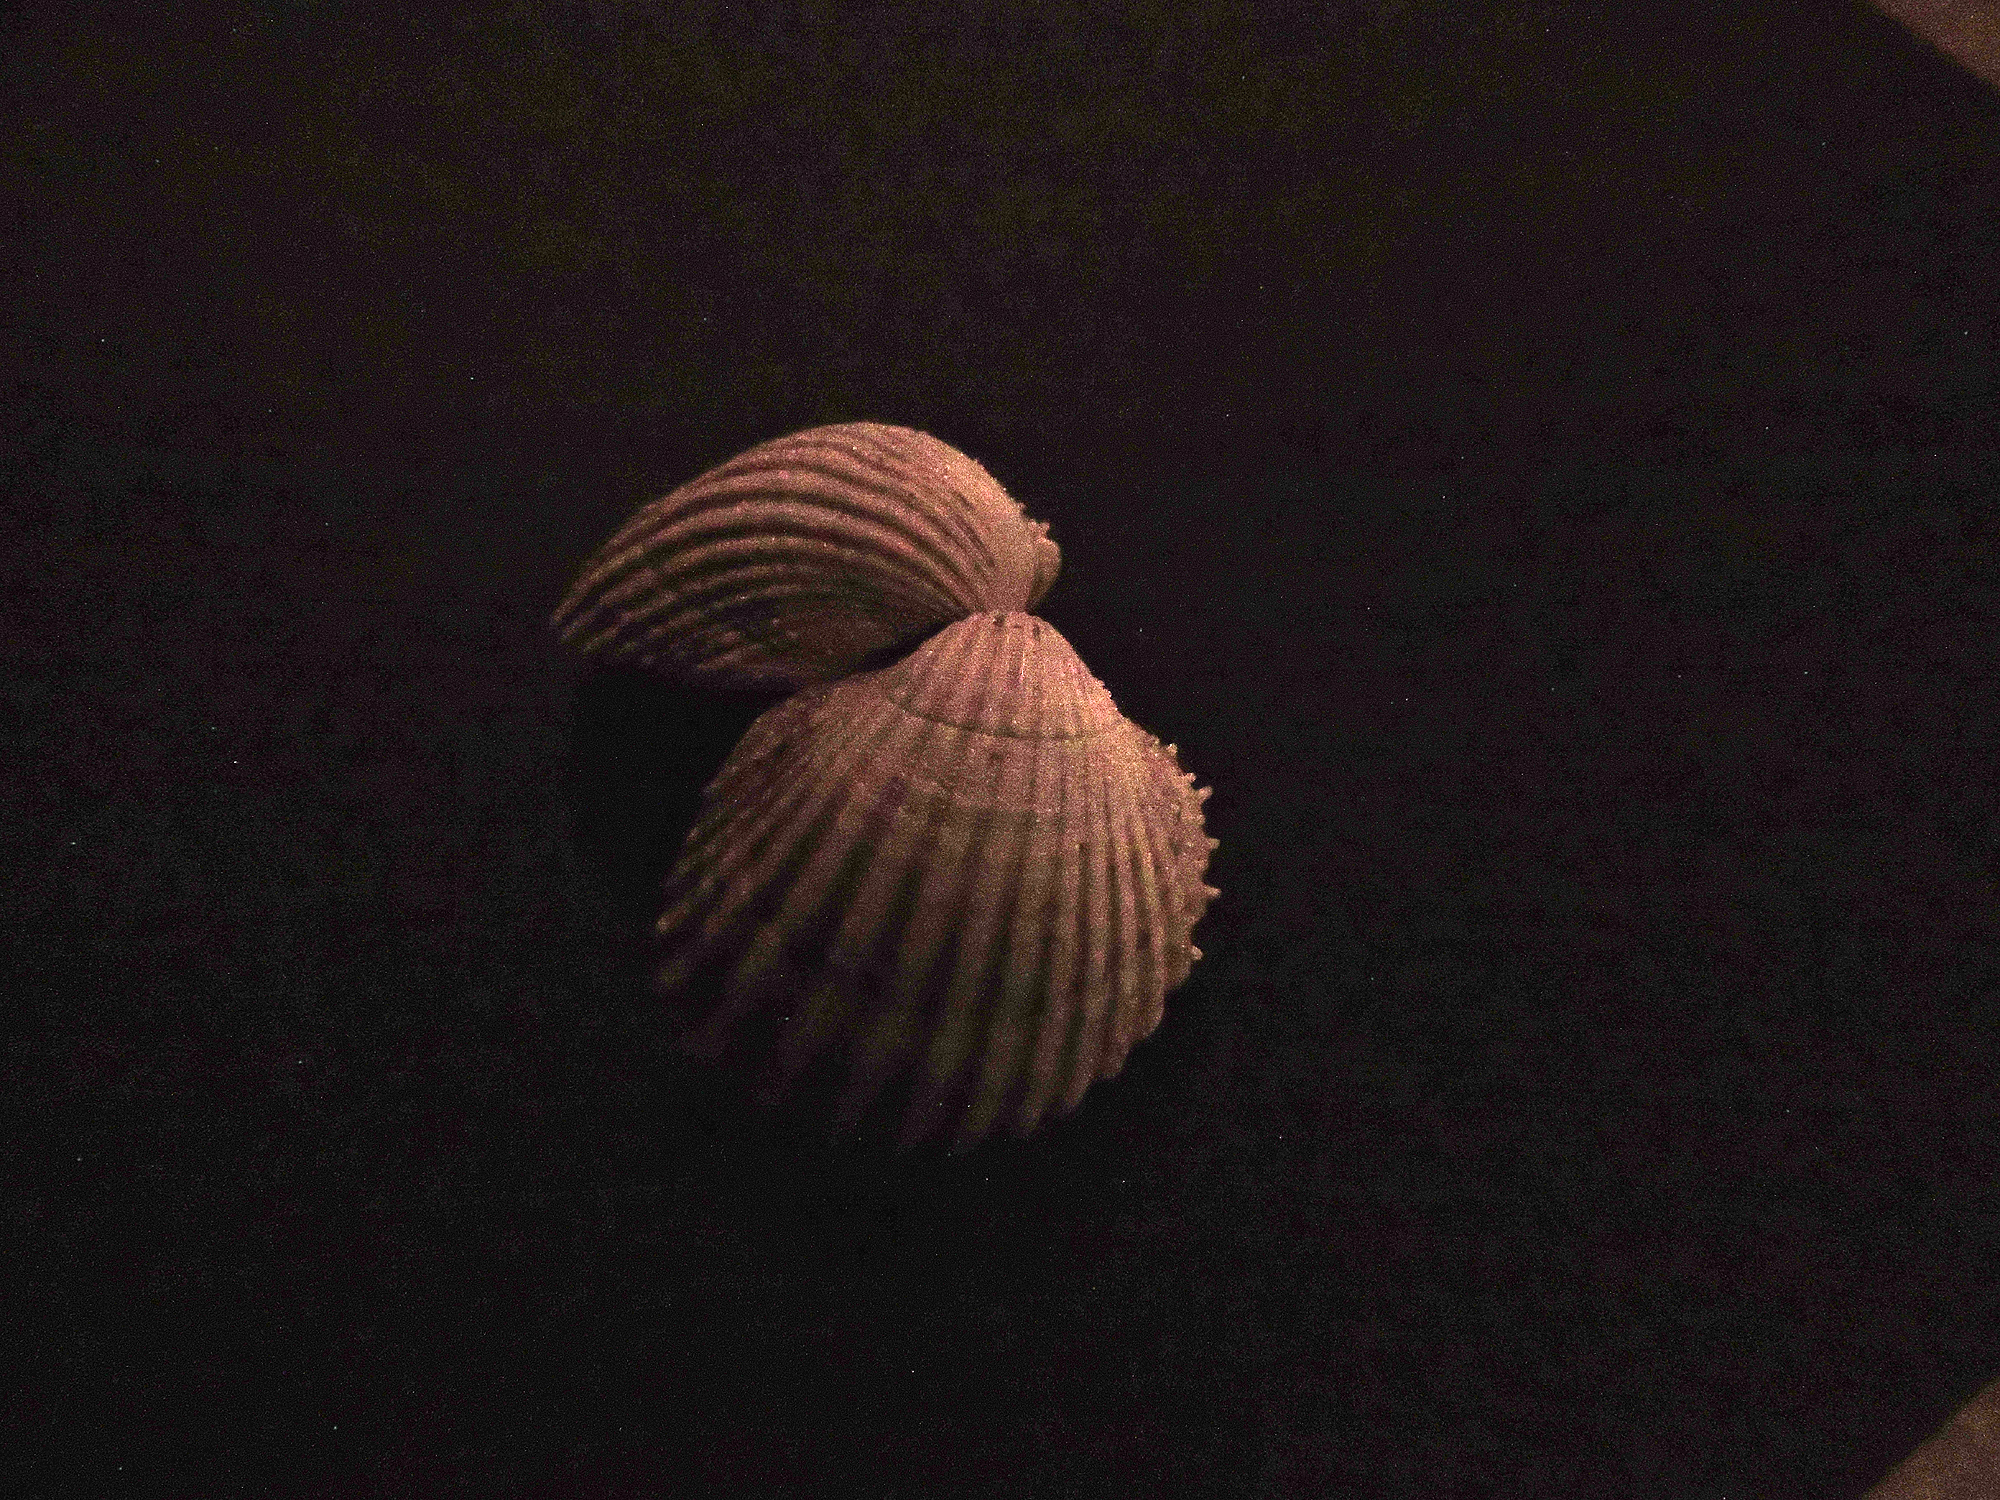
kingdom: Animalia
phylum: Mollusca
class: Bivalvia
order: Cardiida
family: Cardiidae
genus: Acanthocardia
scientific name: Acanthocardia echinata
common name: Prickly cockle
